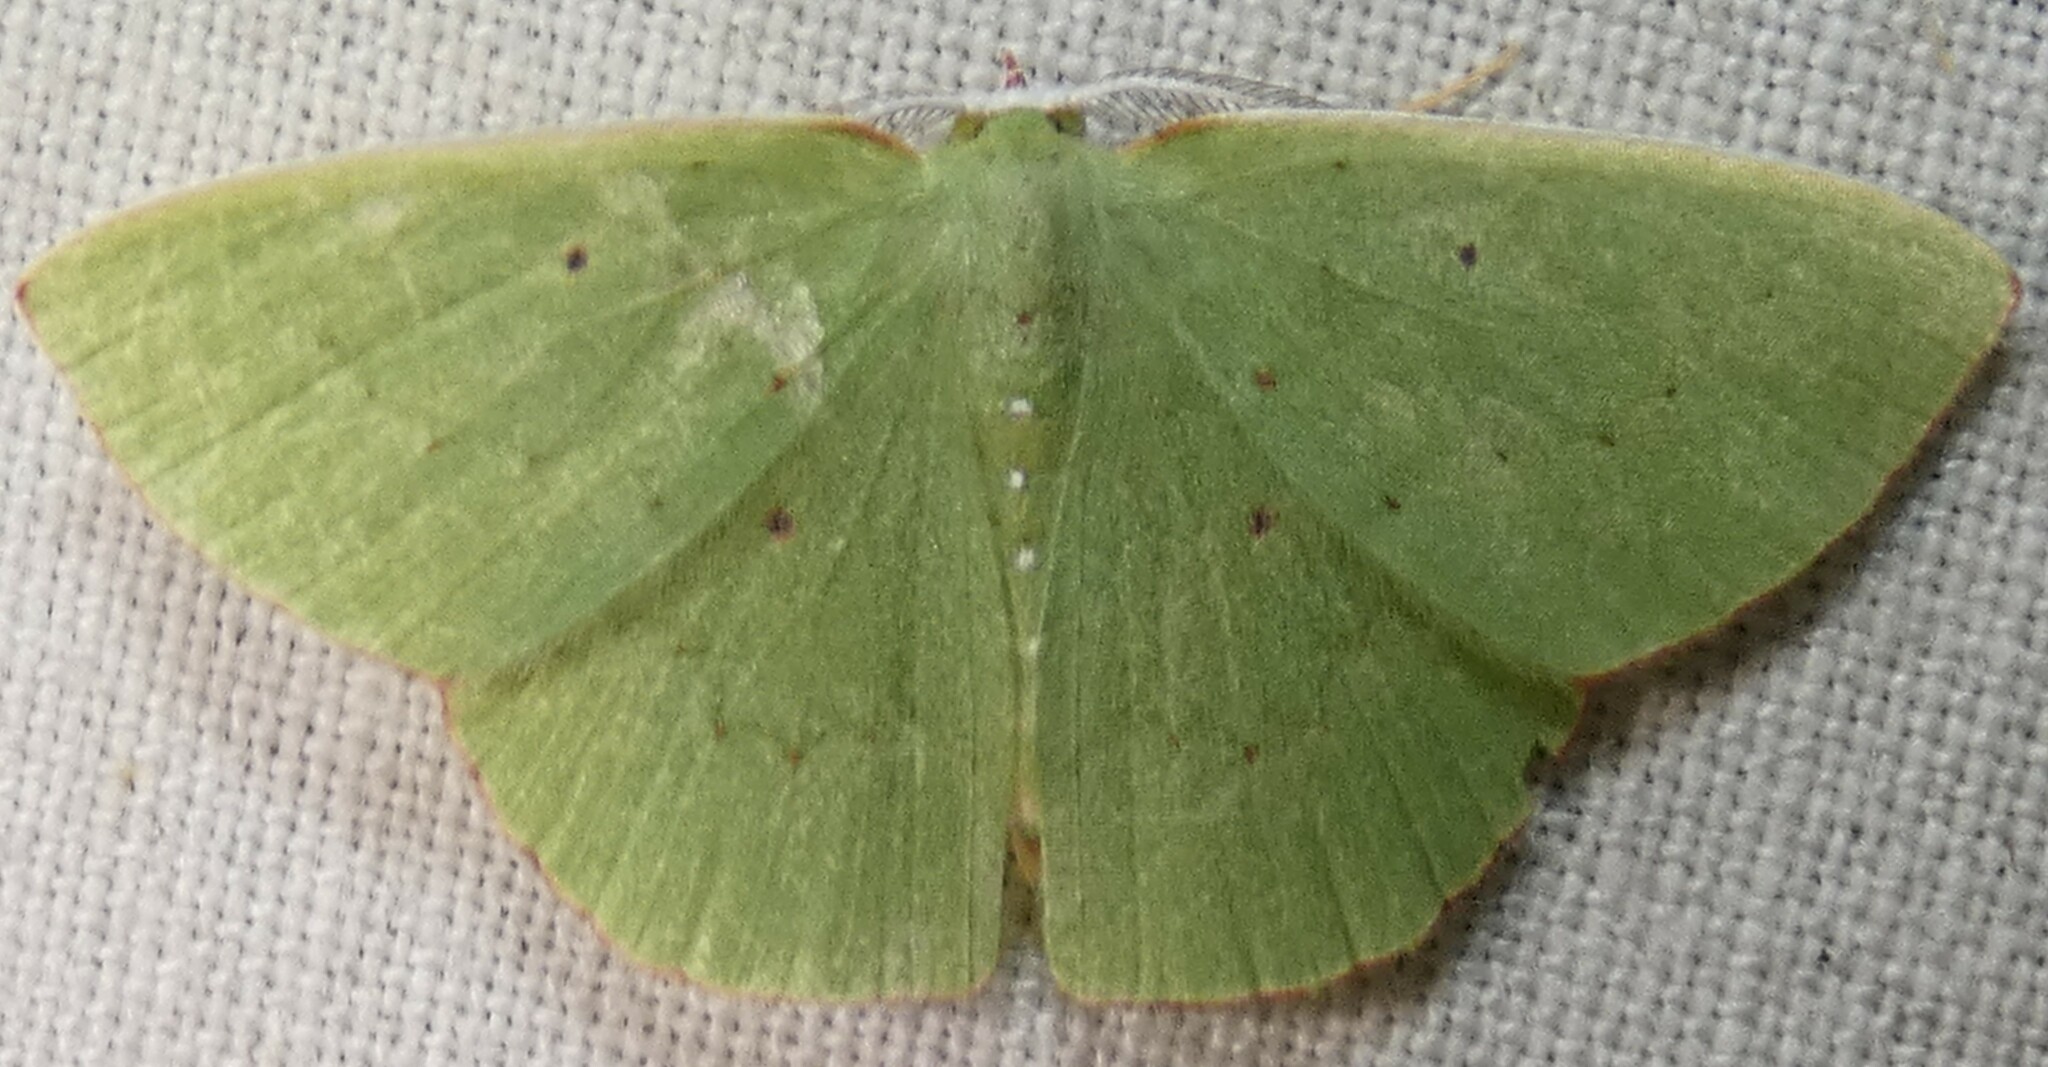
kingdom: Animalia
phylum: Arthropoda
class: Insecta
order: Lepidoptera
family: Geometridae
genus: Phrudocentra
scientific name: Phrudocentra centrifugaria
